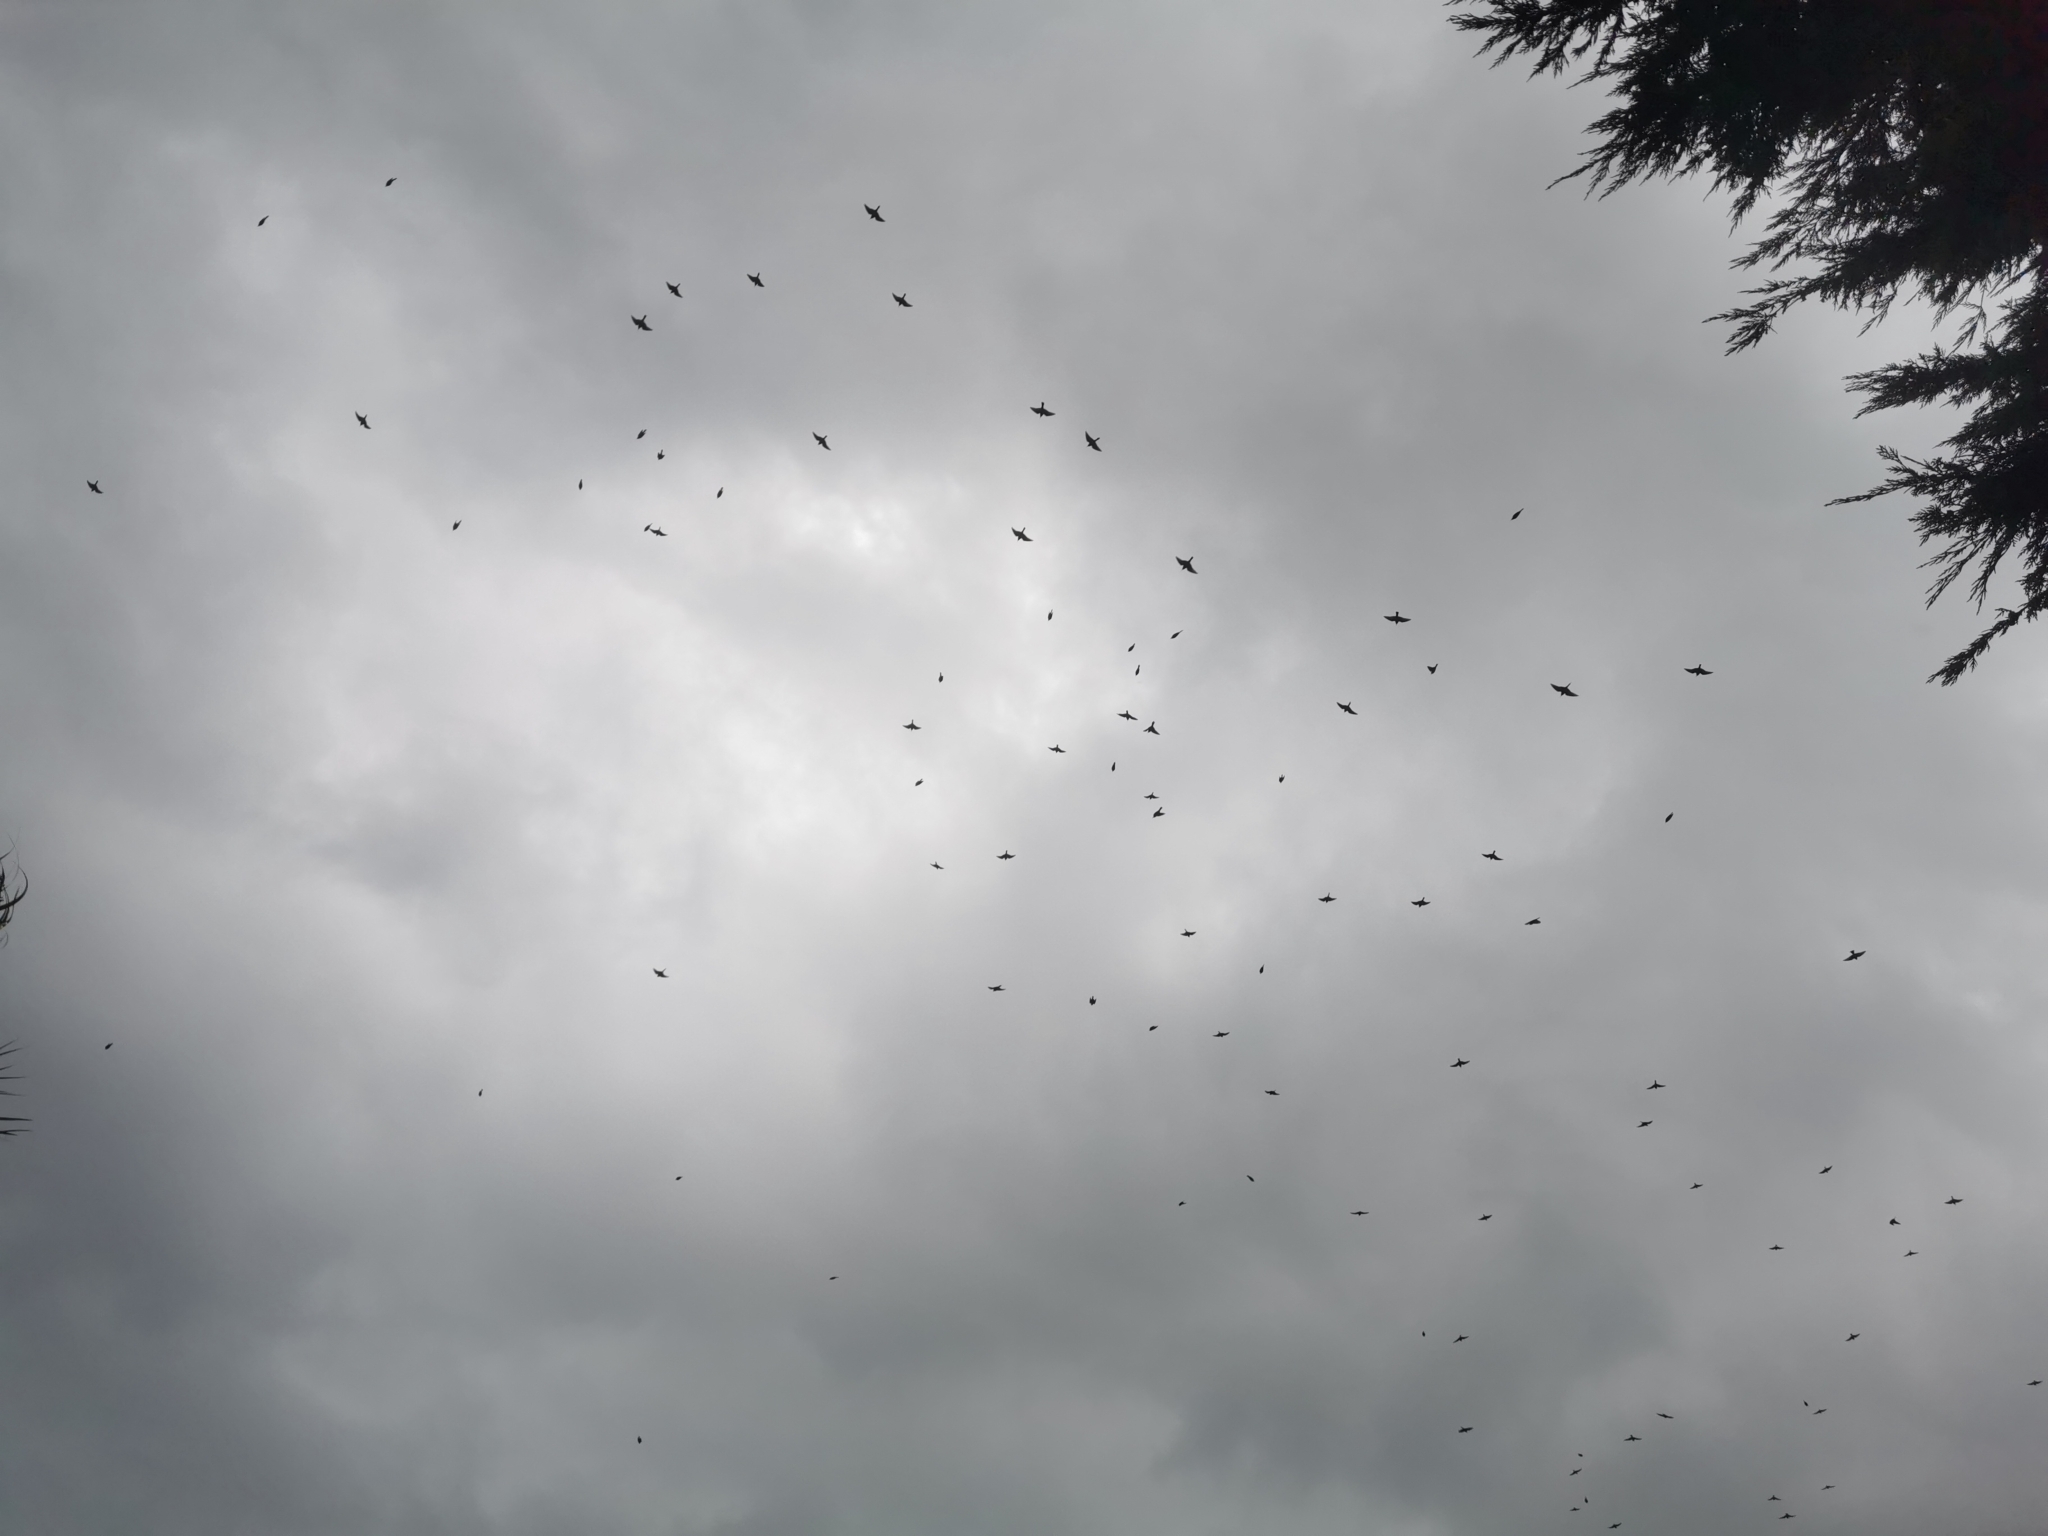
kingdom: Animalia
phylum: Chordata
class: Aves
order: Coraciiformes
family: Meropidae
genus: Merops
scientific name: Merops apiaster
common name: European bee-eater
